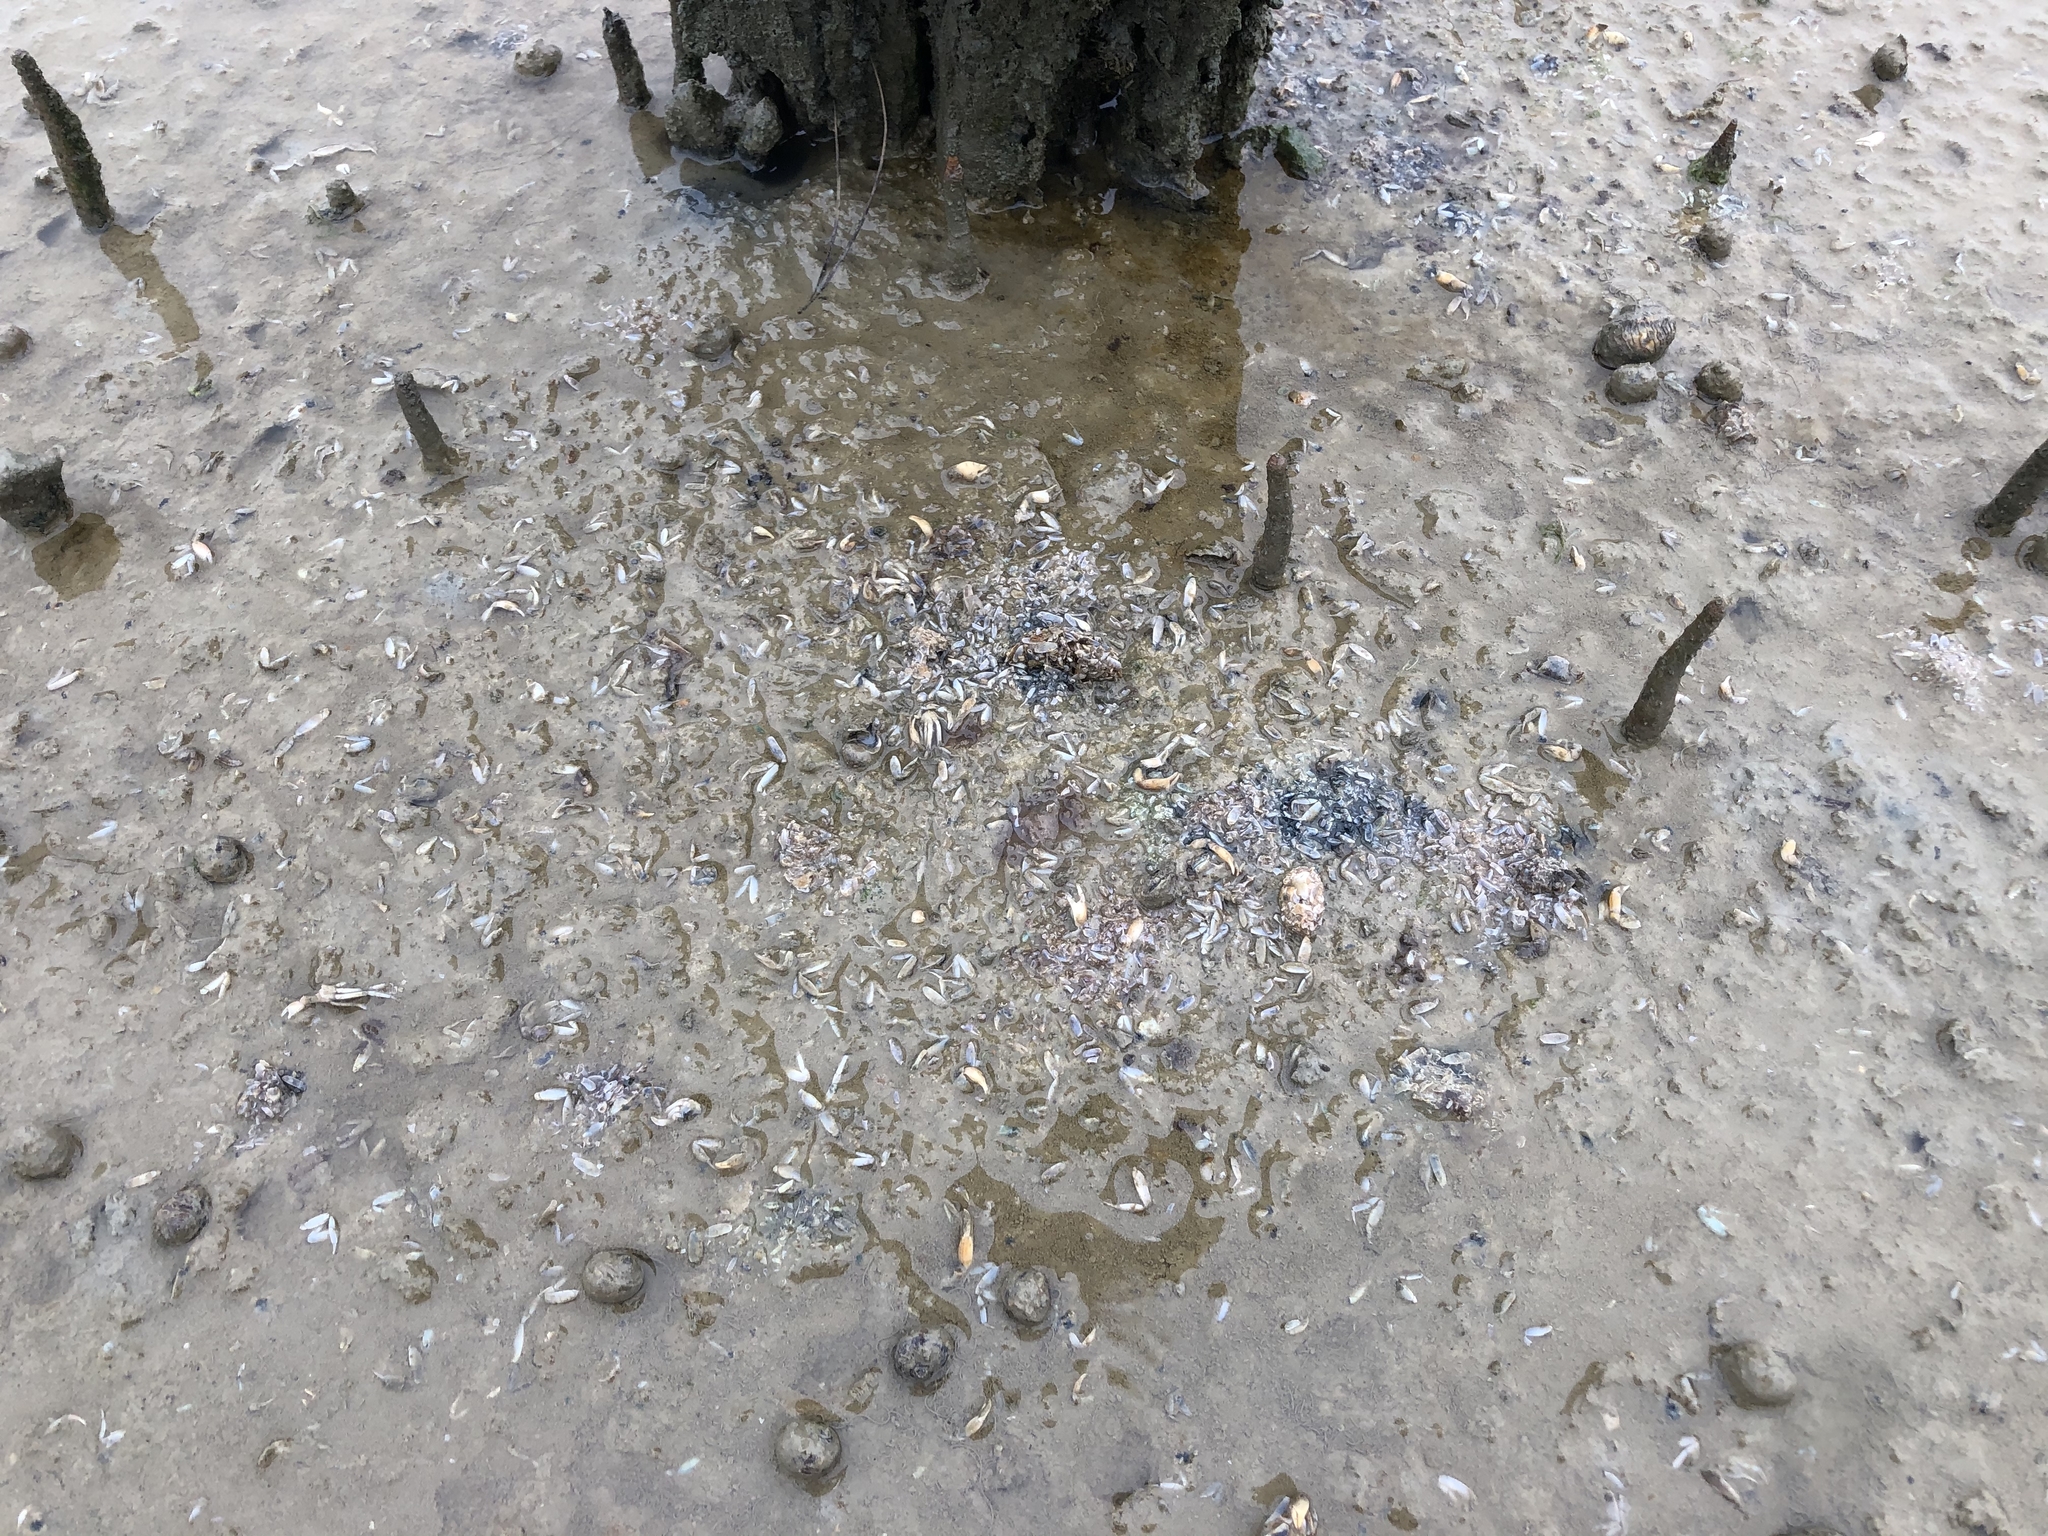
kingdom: Animalia
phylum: Arthropoda
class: Malacostraca
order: Decapoda
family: Macrophthalmidae
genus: Hemiplax
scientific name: Hemiplax hirtipes
